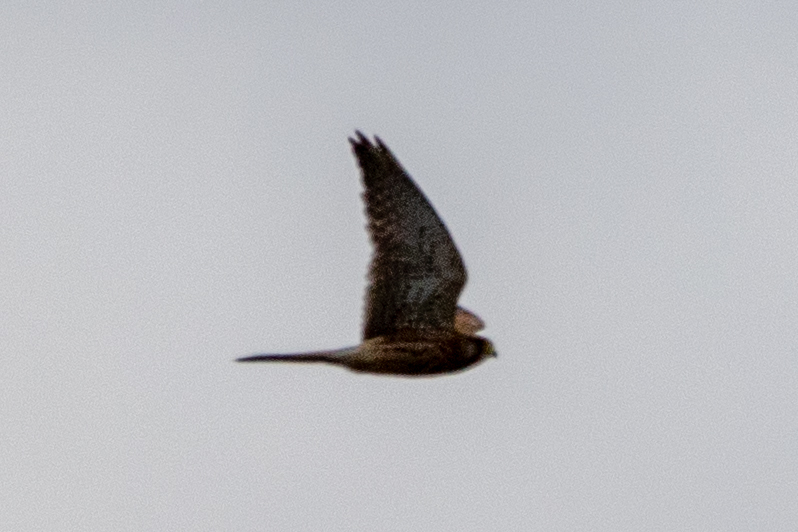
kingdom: Animalia
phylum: Chordata
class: Aves
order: Falconiformes
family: Falconidae
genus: Falco
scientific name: Falco tinnunculus
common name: Common kestrel
